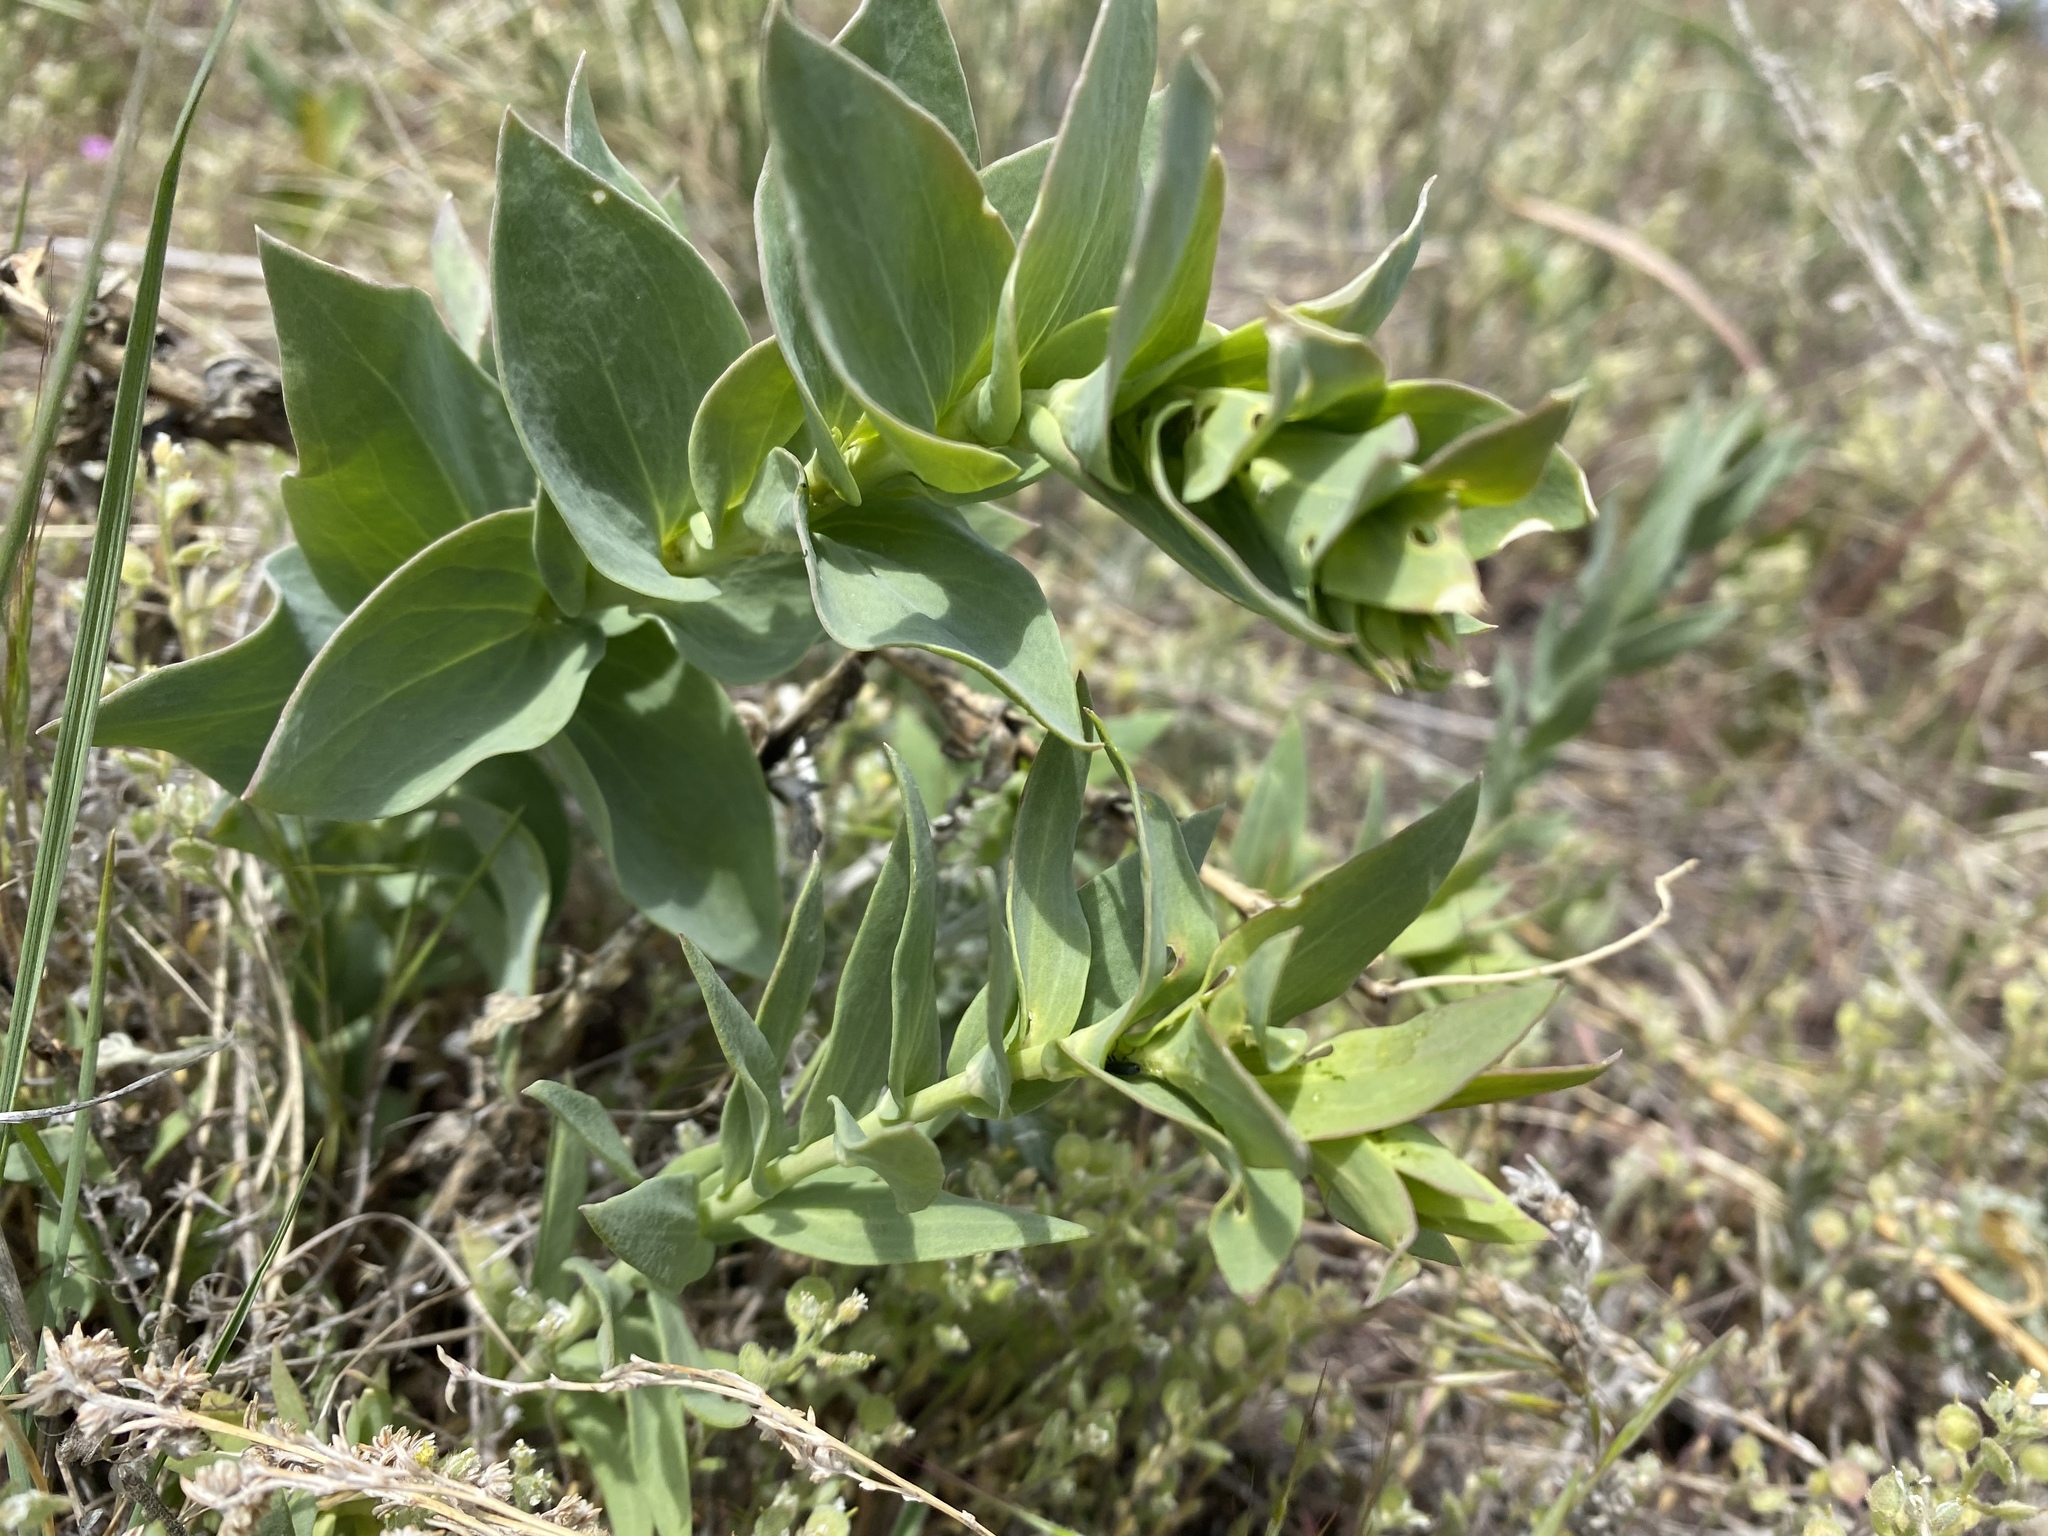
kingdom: Plantae
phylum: Tracheophyta
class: Magnoliopsida
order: Lamiales
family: Plantaginaceae
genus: Linaria
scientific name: Linaria dalmatica
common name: Dalmatian toadflax
